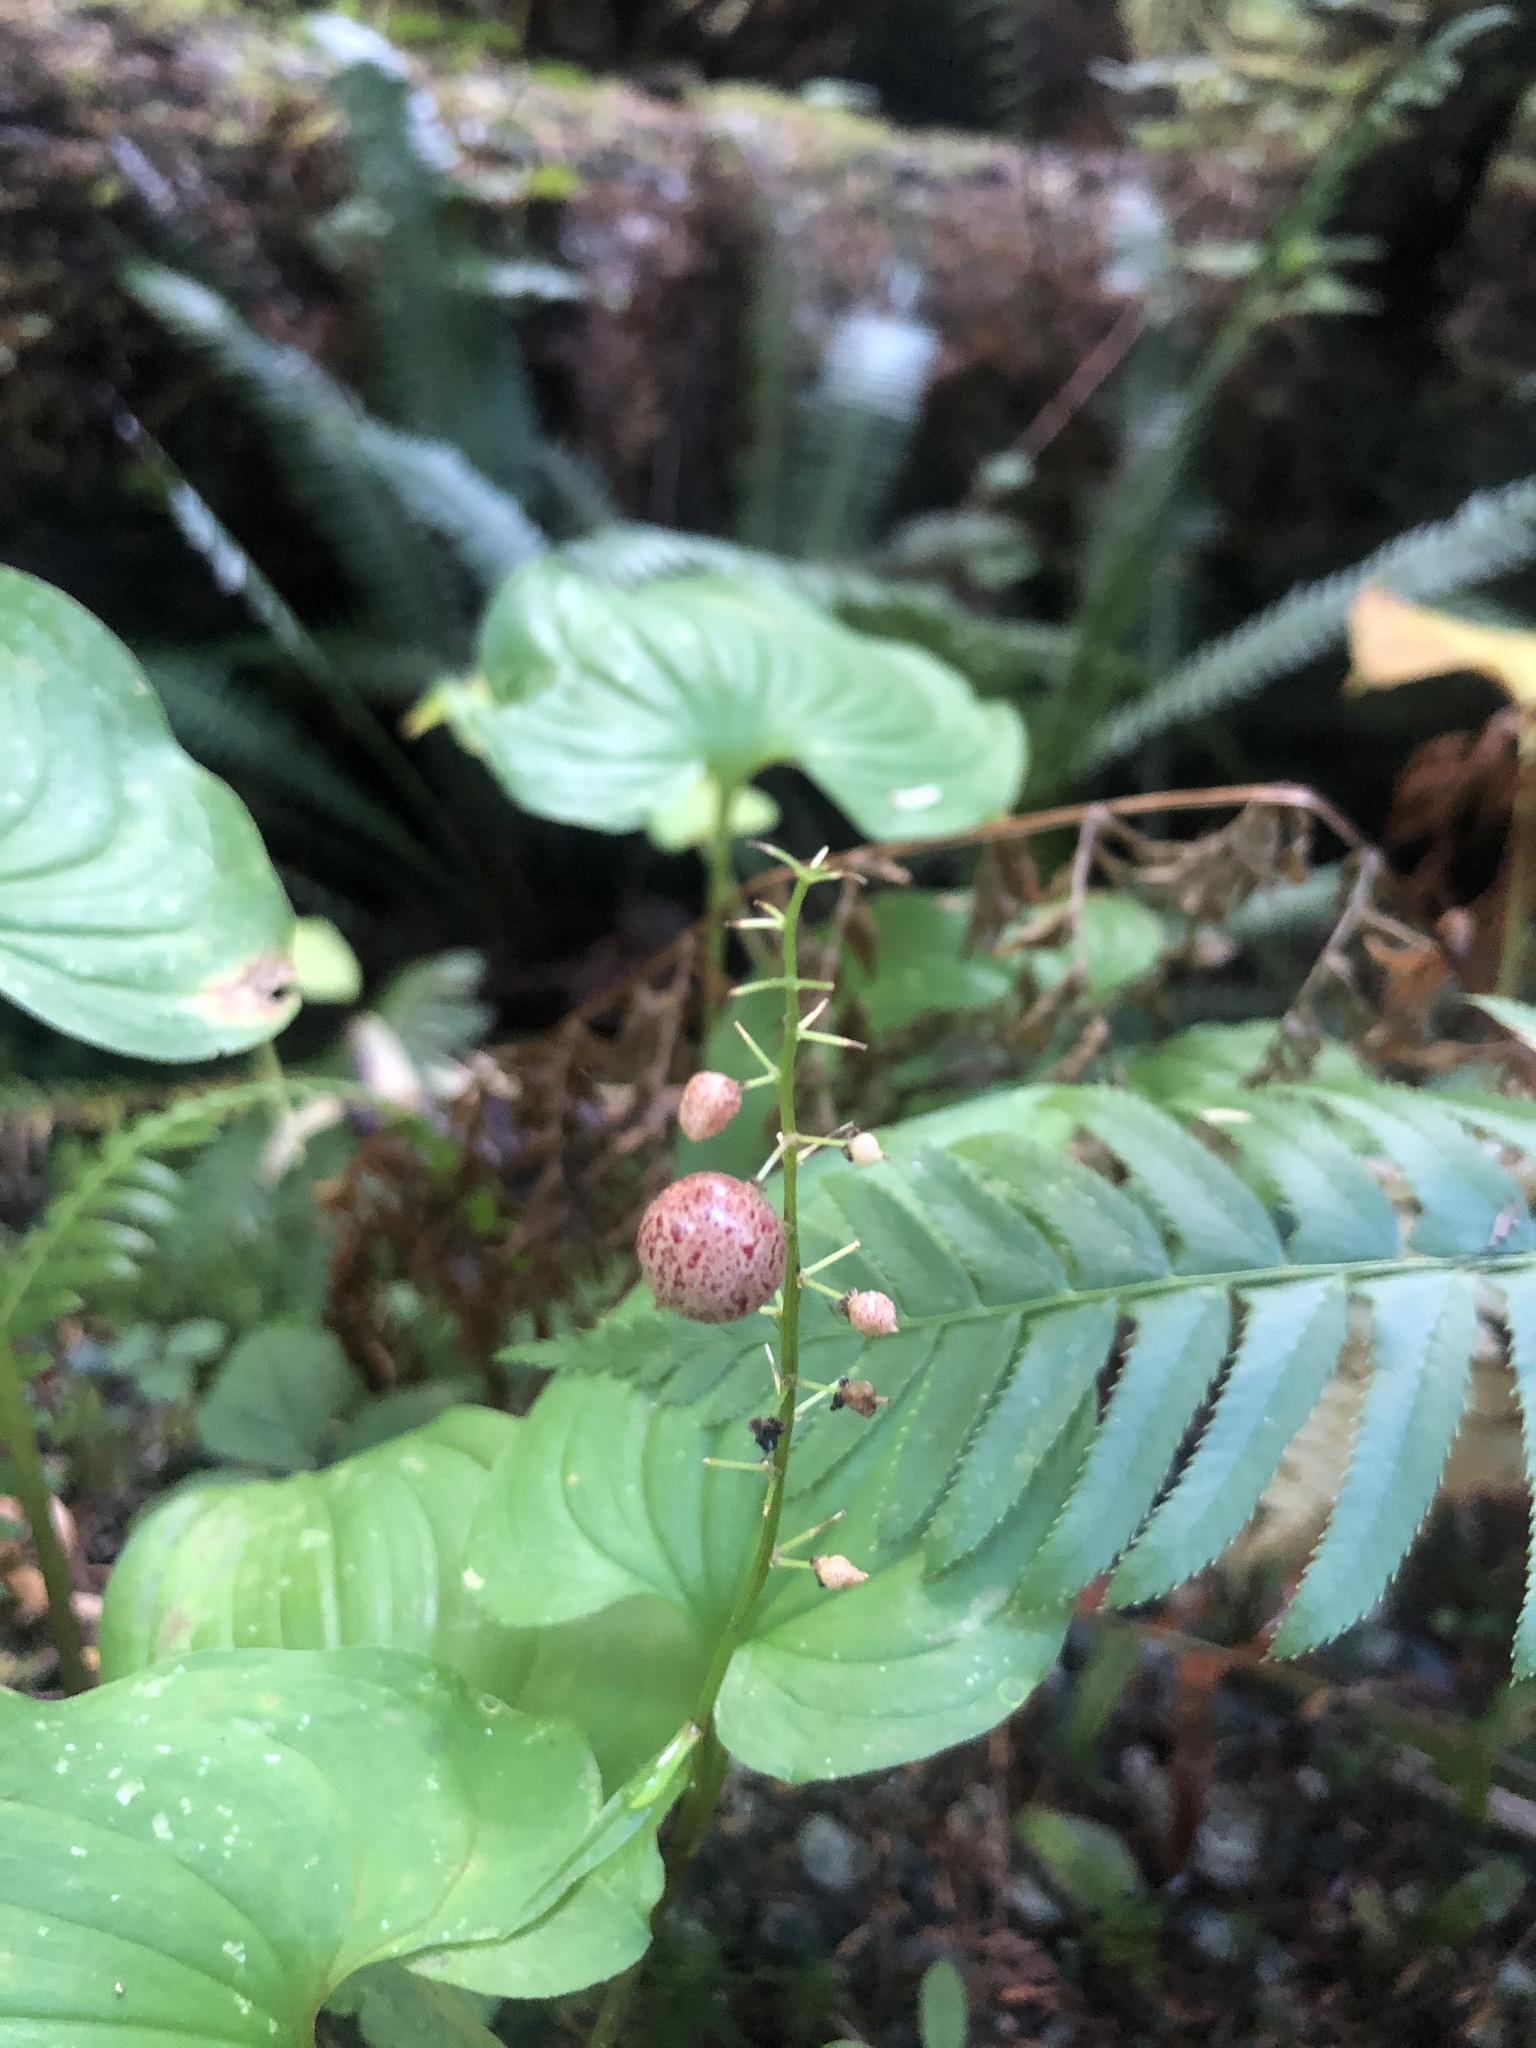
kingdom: Plantae
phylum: Tracheophyta
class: Liliopsida
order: Asparagales
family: Asparagaceae
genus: Maianthemum
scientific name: Maianthemum dilatatum
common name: False lily-of-the-valley
